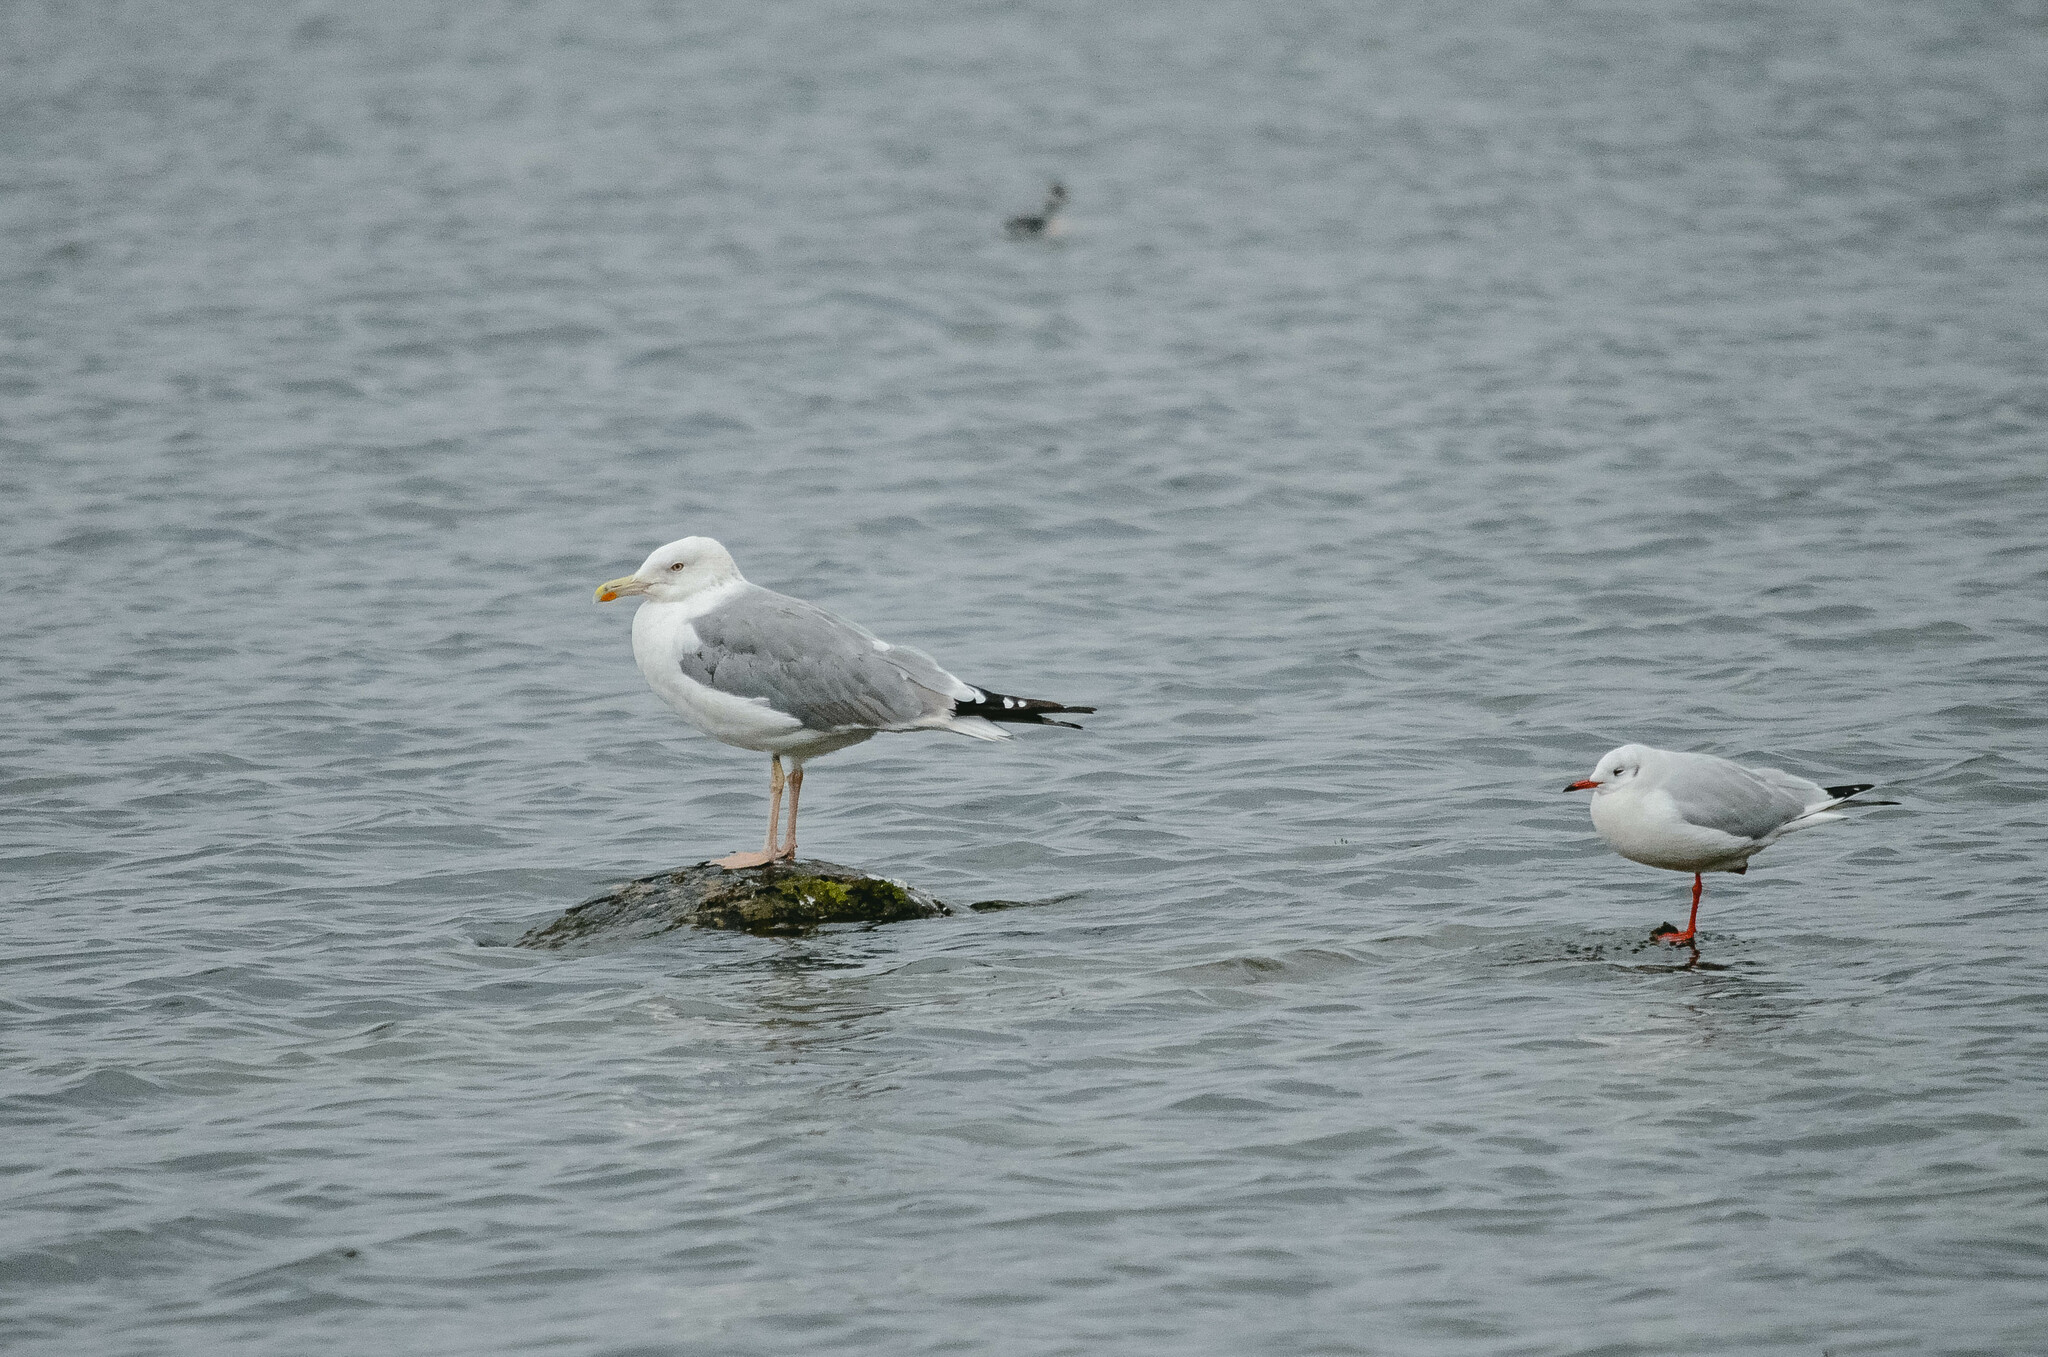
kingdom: Animalia
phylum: Chordata
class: Aves
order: Charadriiformes
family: Laridae
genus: Larus
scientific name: Larus fuscus
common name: Lesser black-backed gull
